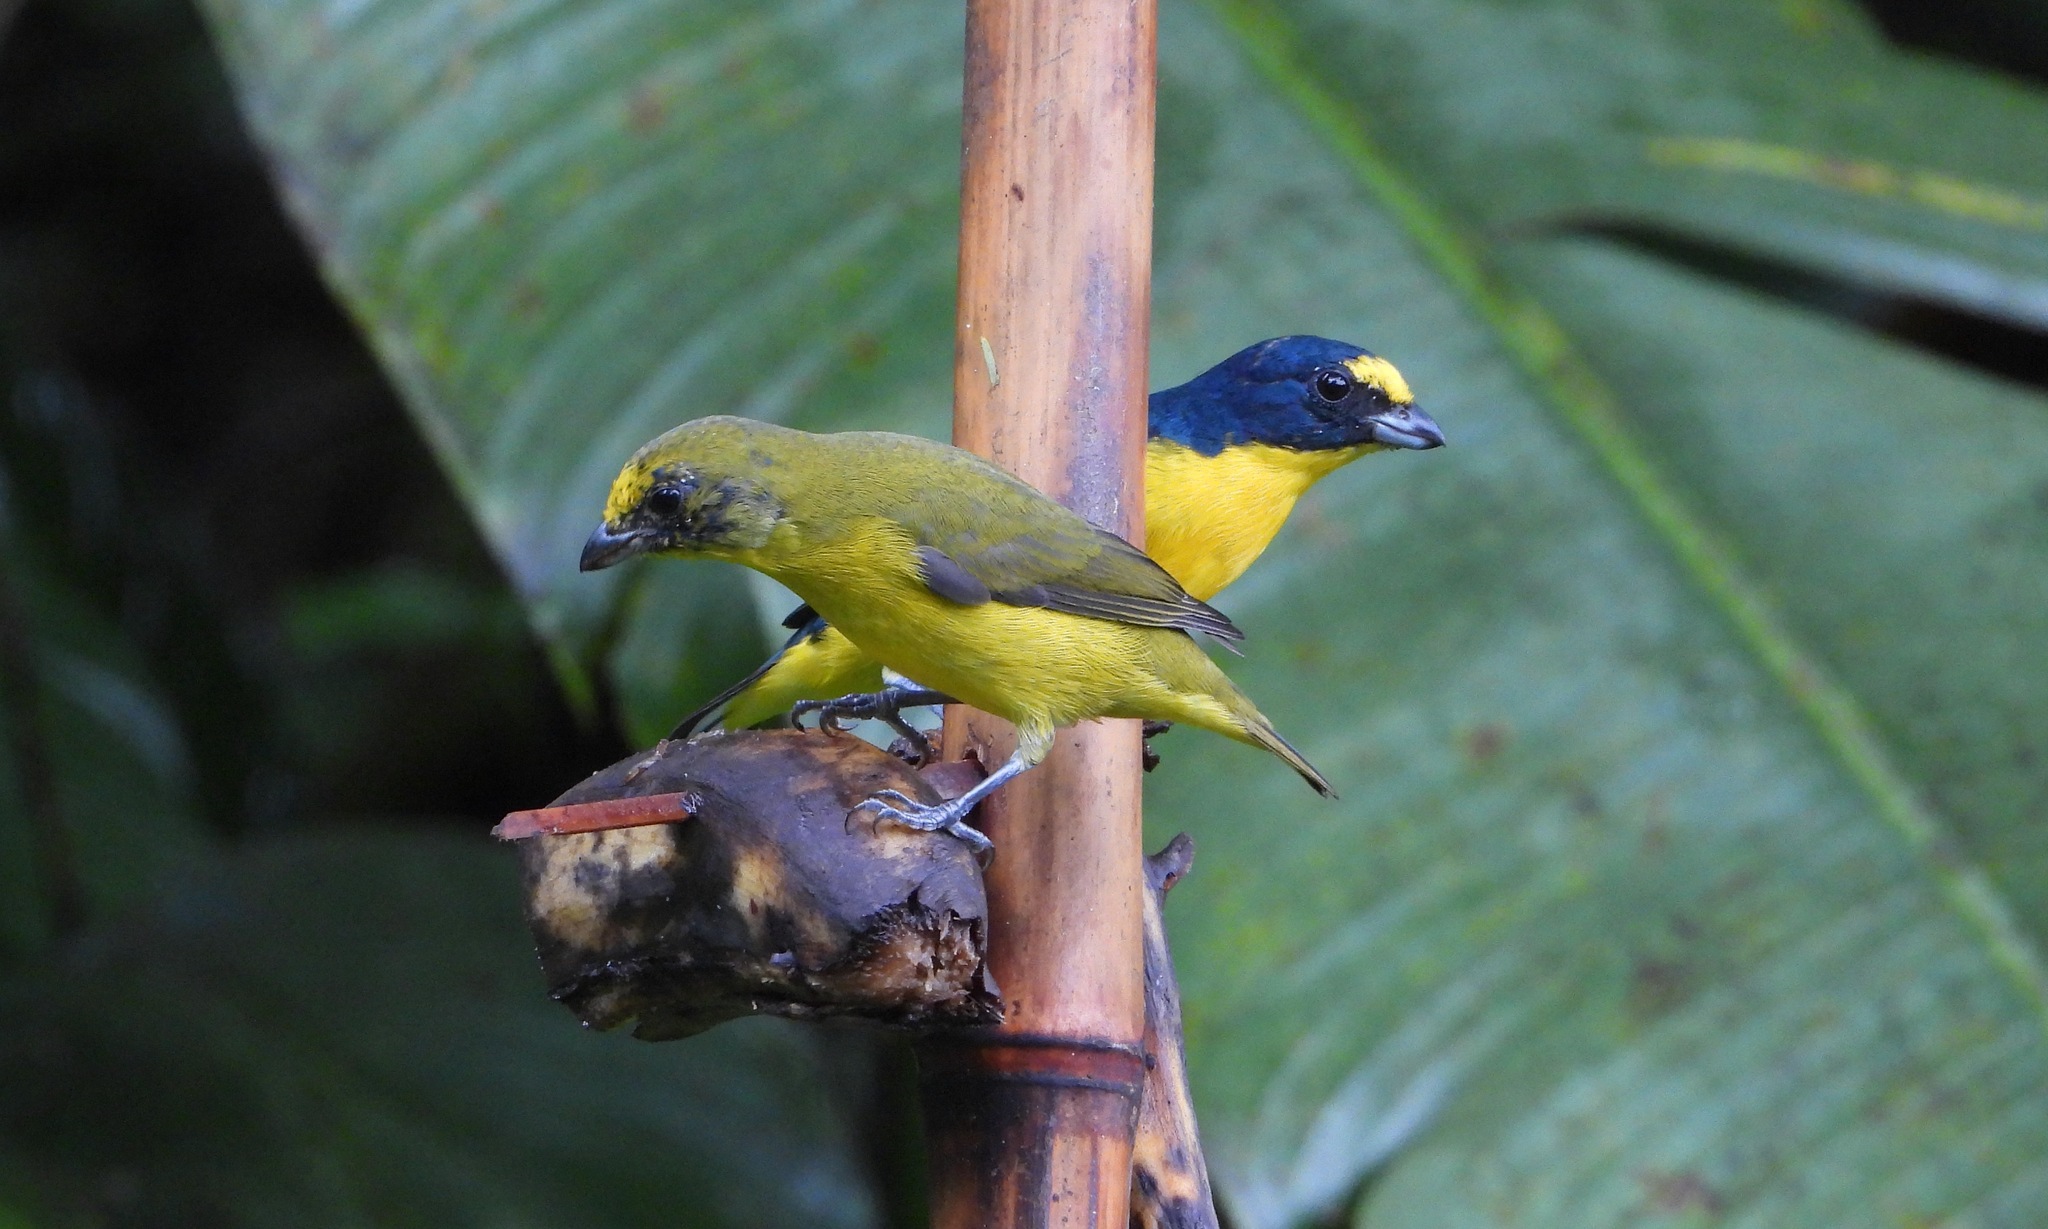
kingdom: Animalia
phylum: Chordata
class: Aves
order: Passeriformes
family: Fringillidae
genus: Euphonia
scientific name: Euphonia hirundinacea
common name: Yellow-throated euphonia
